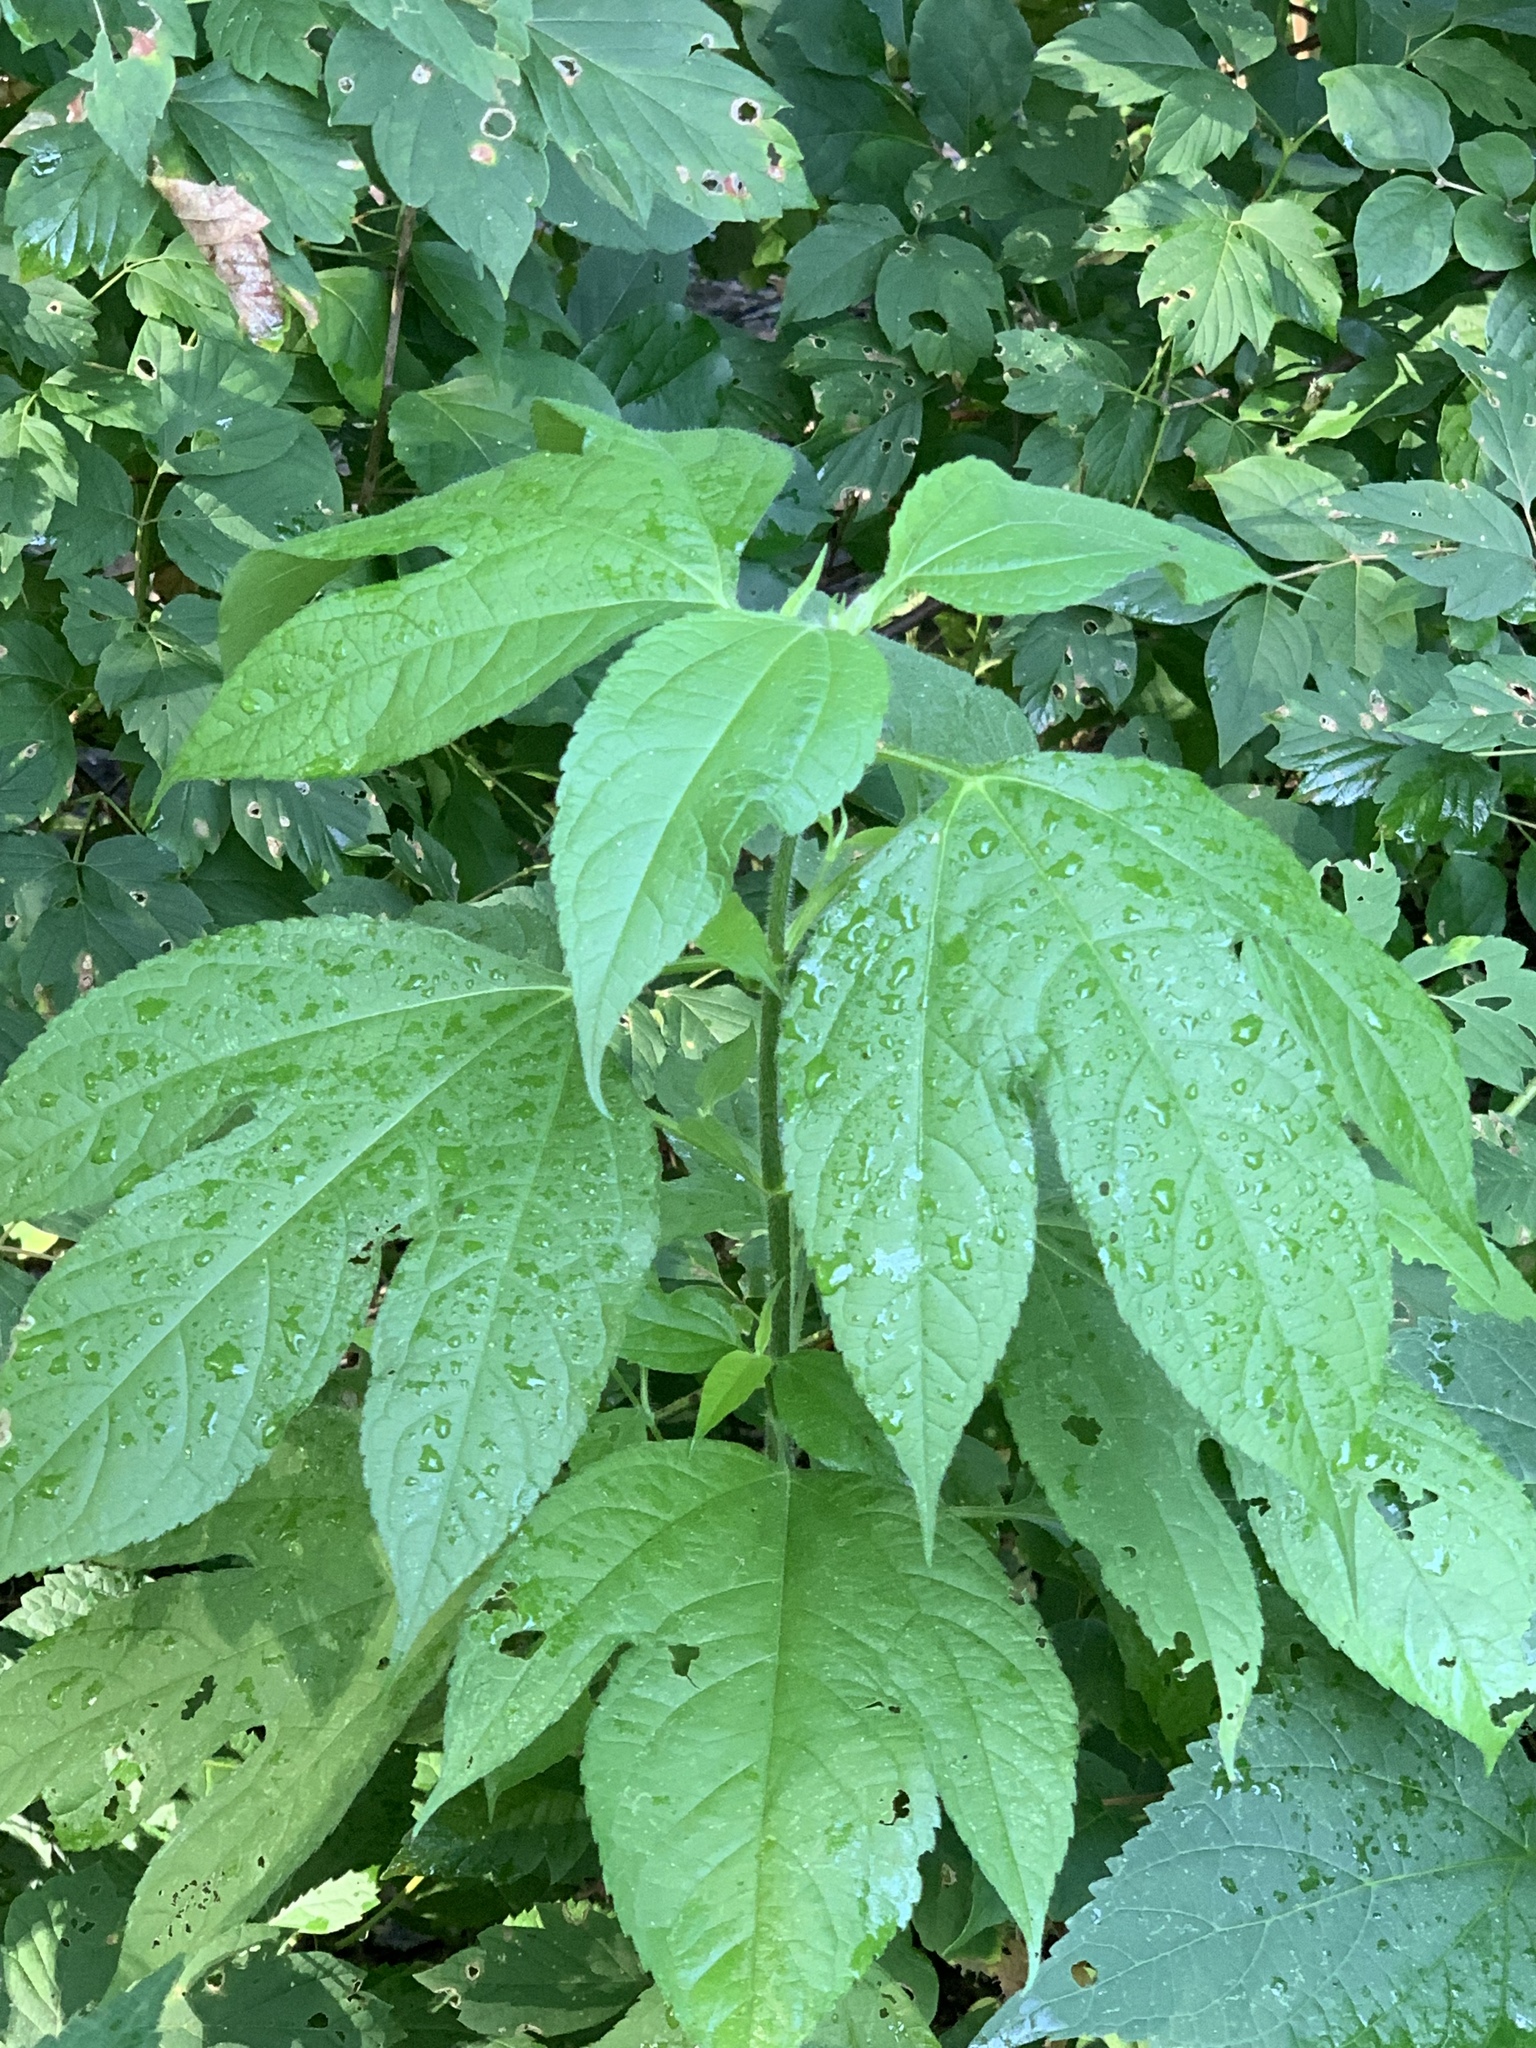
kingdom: Plantae
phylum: Tracheophyta
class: Magnoliopsida
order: Asterales
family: Asteraceae
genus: Ambrosia
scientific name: Ambrosia trifida
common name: Giant ragweed
